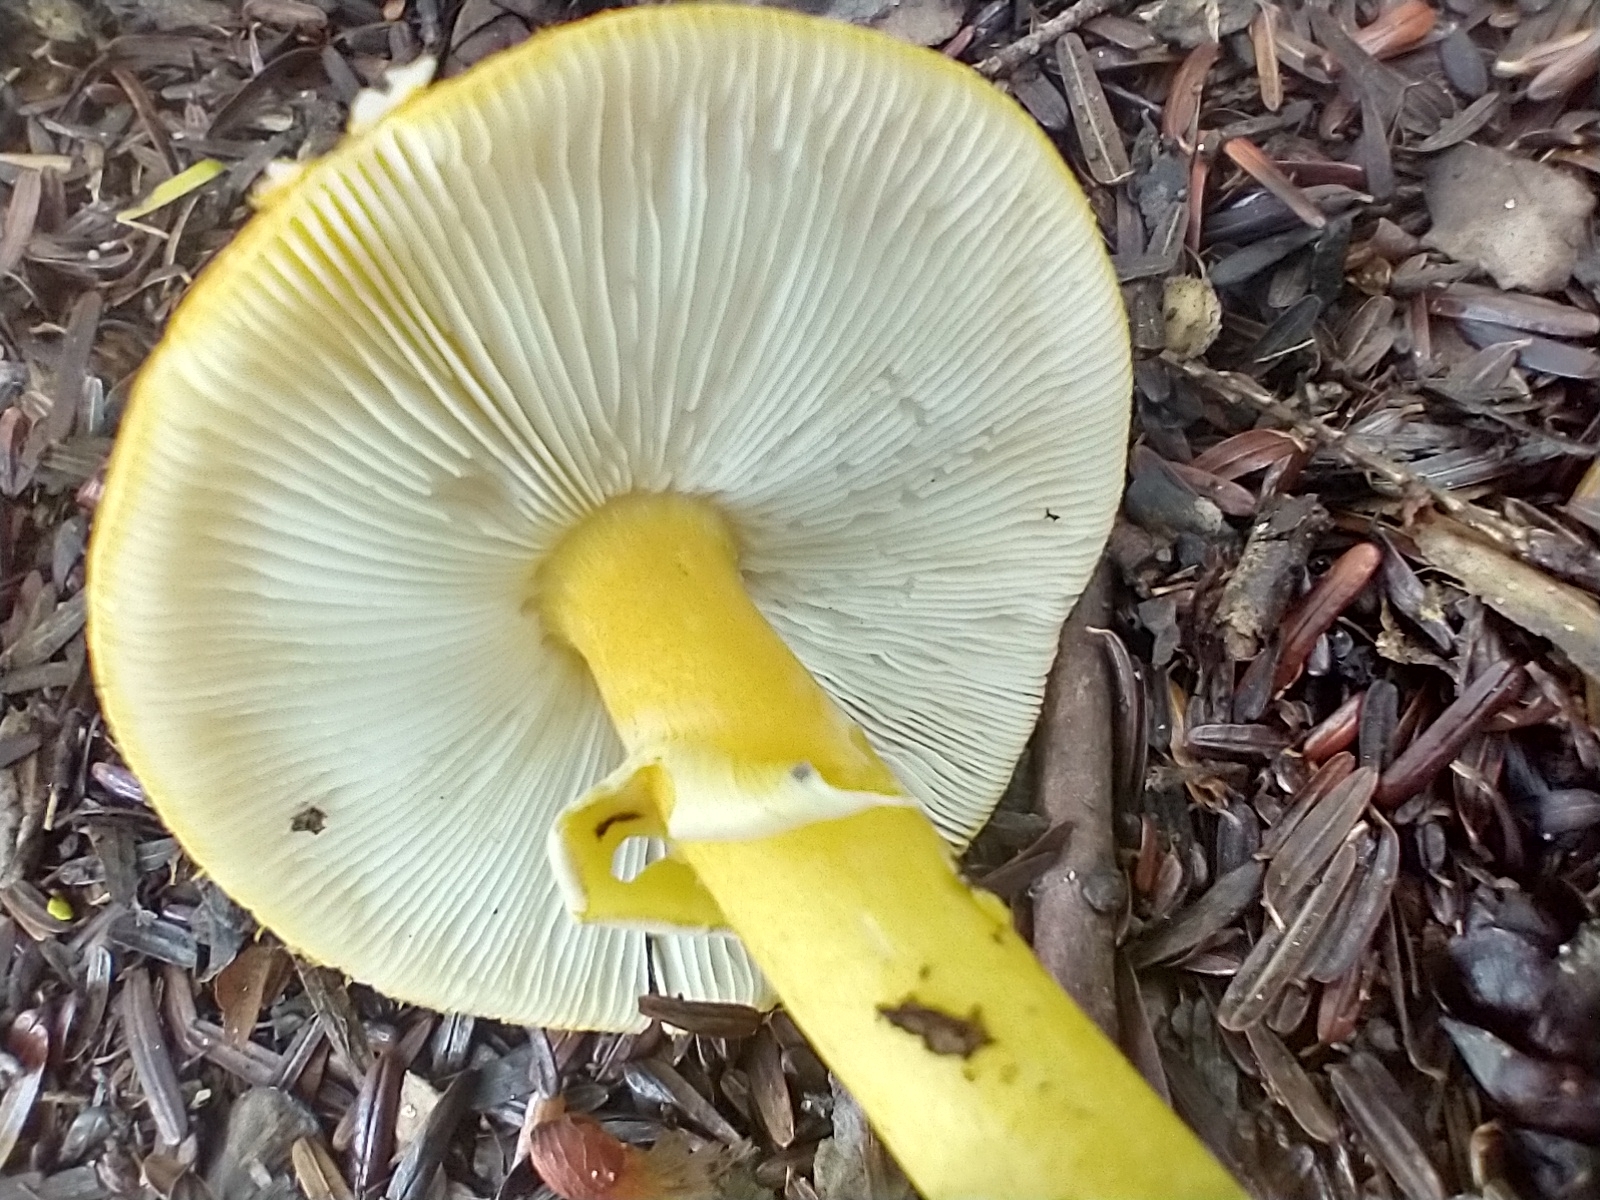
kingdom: Fungi
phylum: Basidiomycota
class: Agaricomycetes
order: Agaricales
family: Amanitaceae
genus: Amanita
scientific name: Amanita flavoconia
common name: Yellow patches
